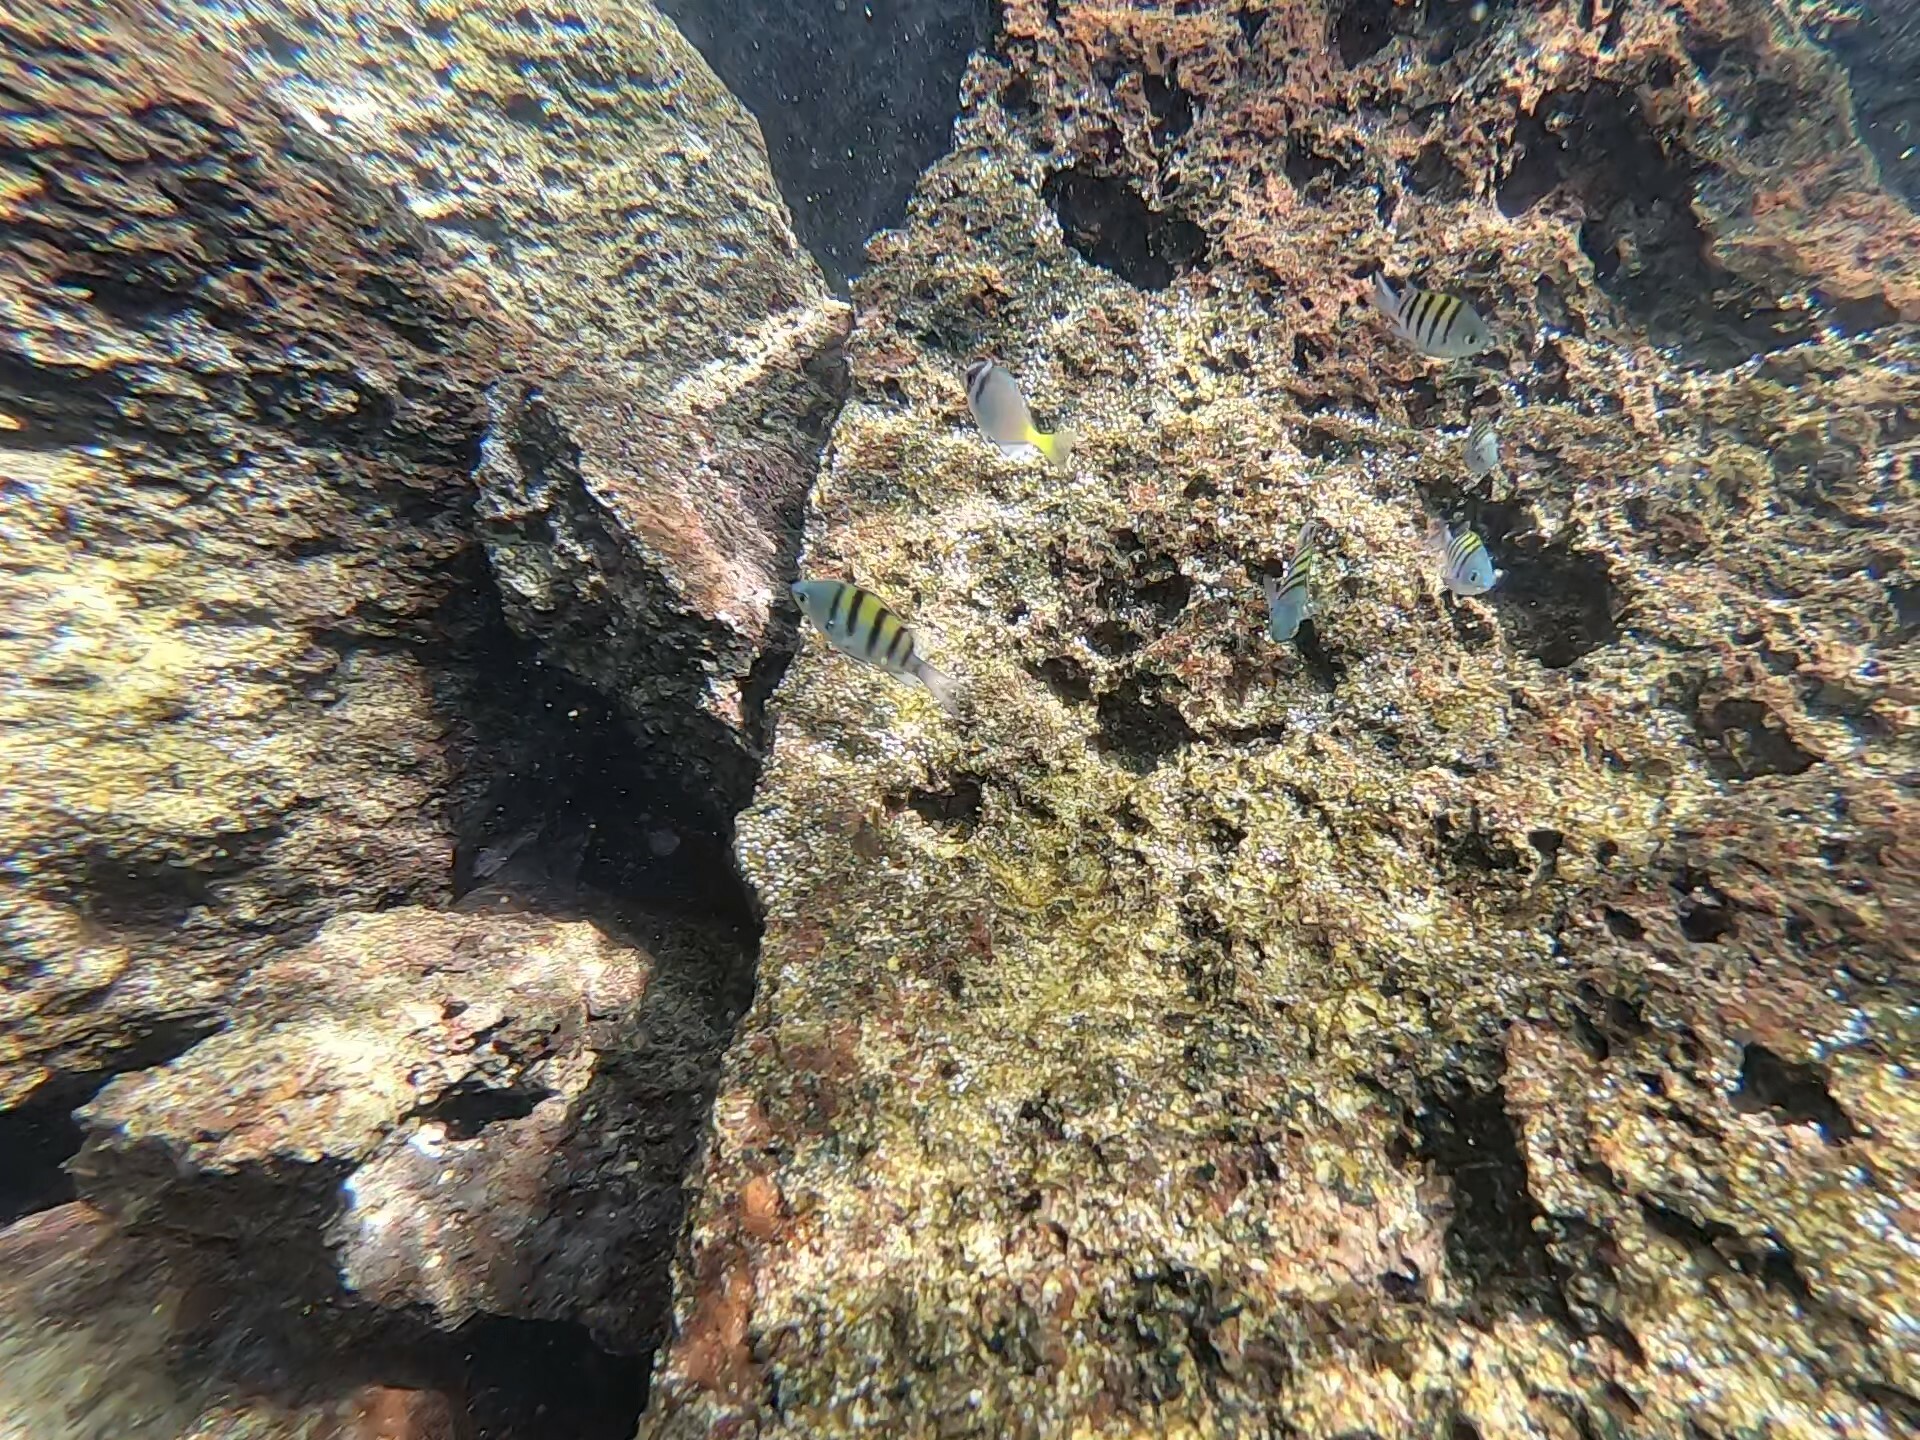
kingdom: Animalia
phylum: Chordata
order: Perciformes
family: Pomacentridae
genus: Abudefduf
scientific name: Abudefduf troschelii
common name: Panamic sergeant major
